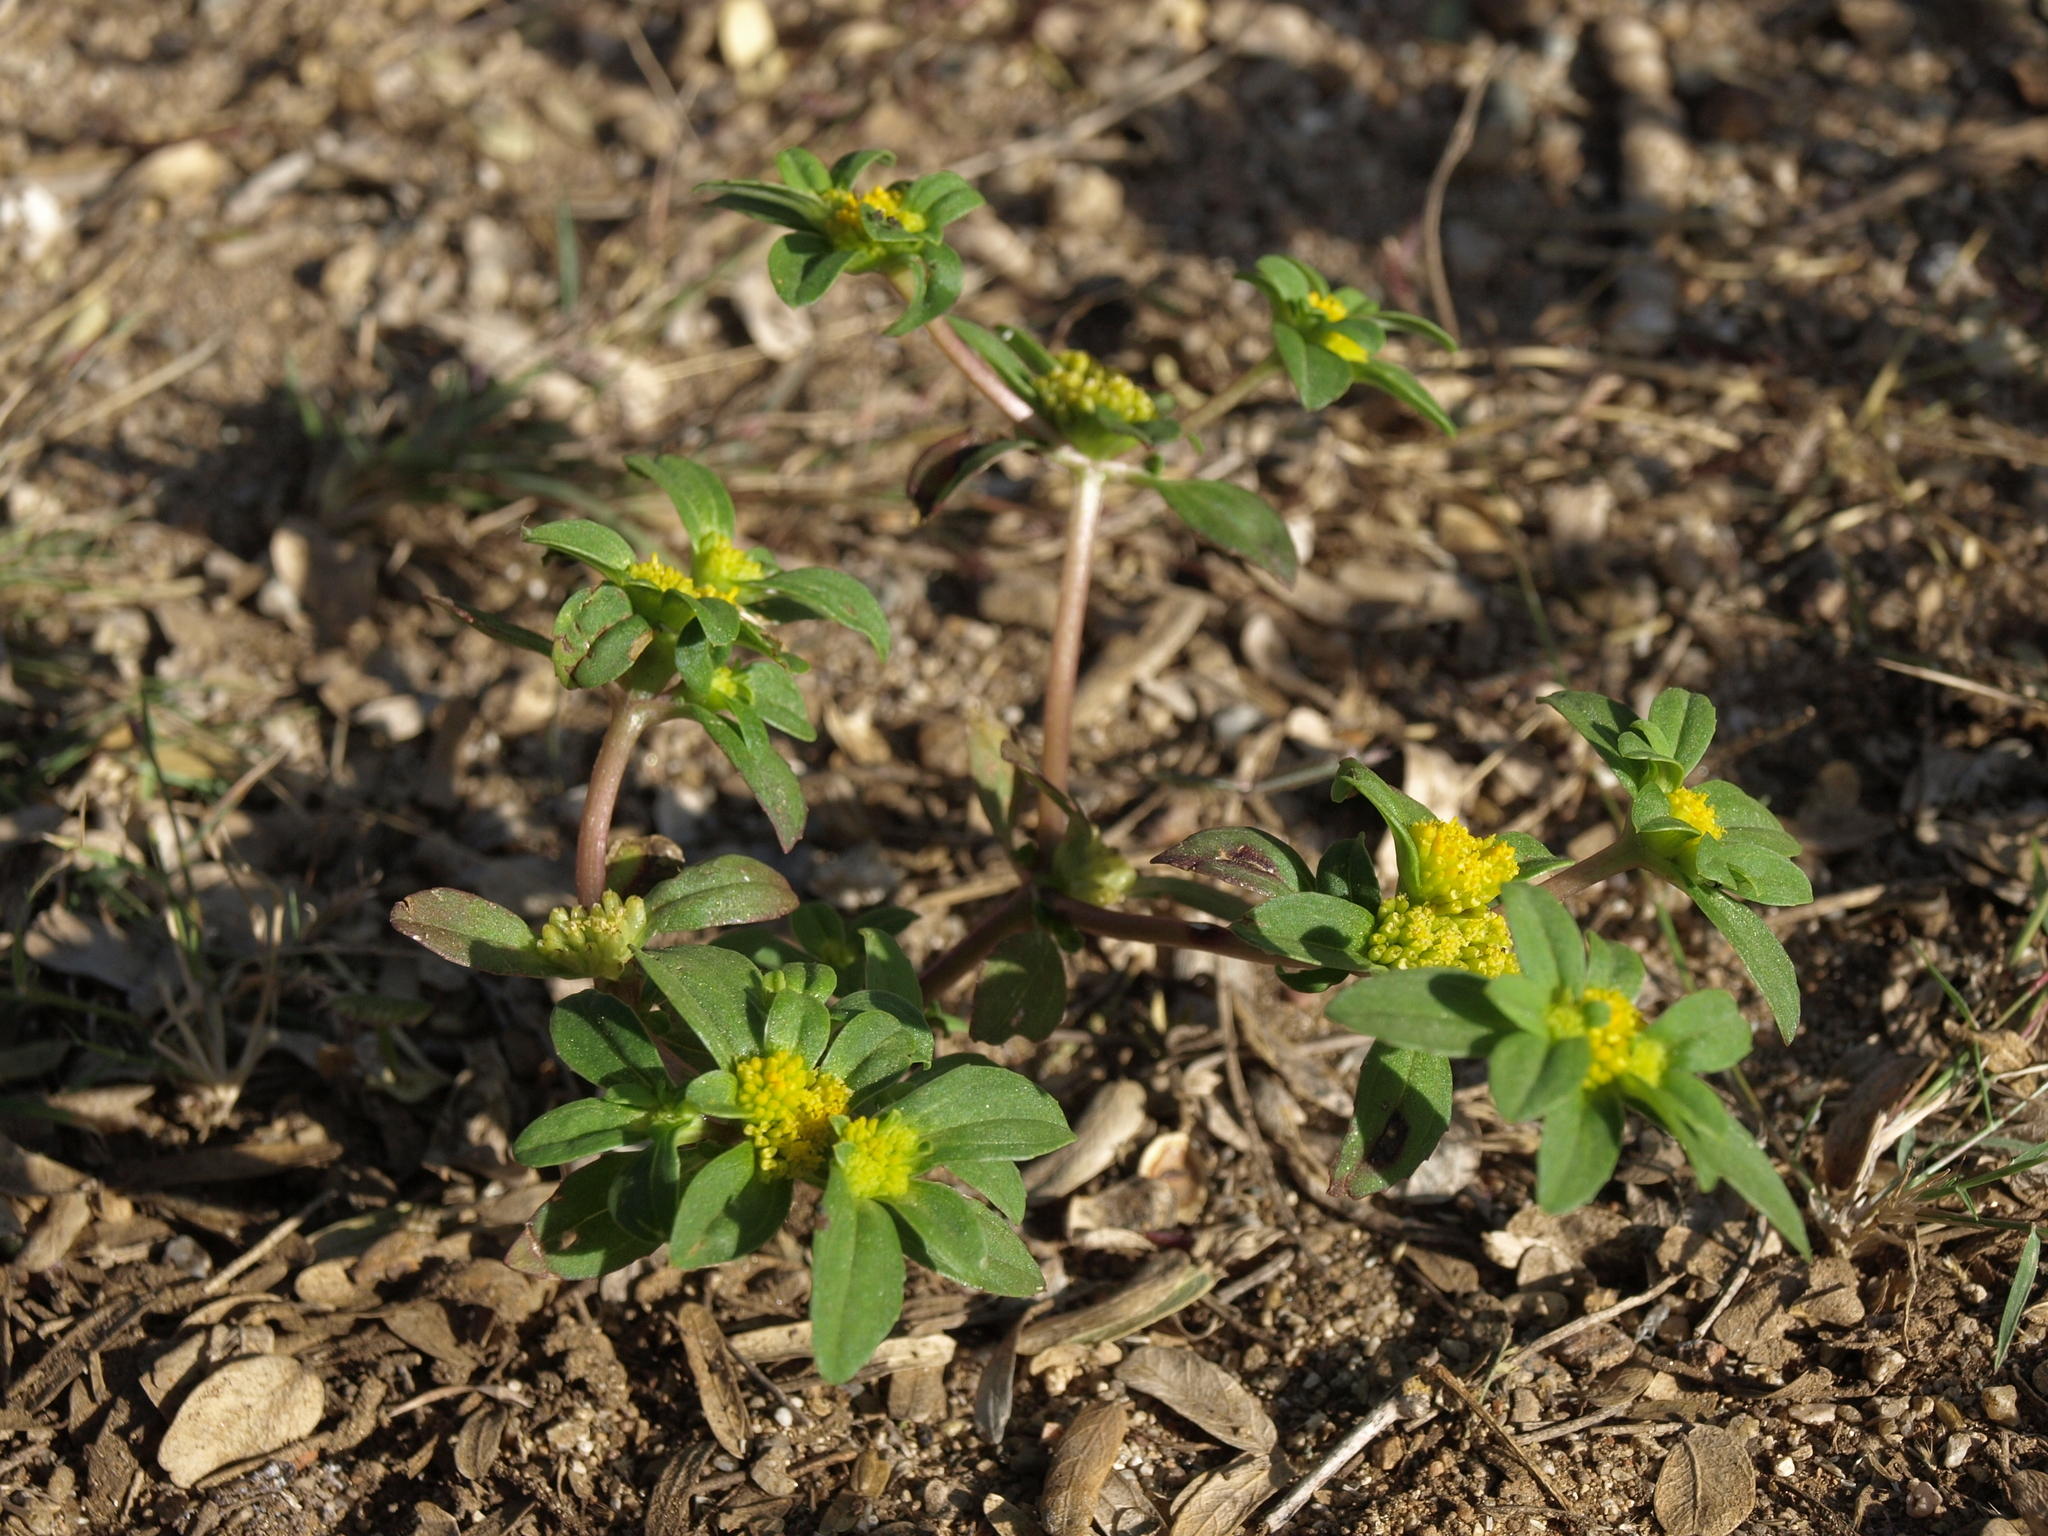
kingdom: Plantae
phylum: Tracheophyta
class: Magnoliopsida
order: Asterales
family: Asteraceae
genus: Flaveria
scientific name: Flaveria trinervia
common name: Clustered yellowtops
